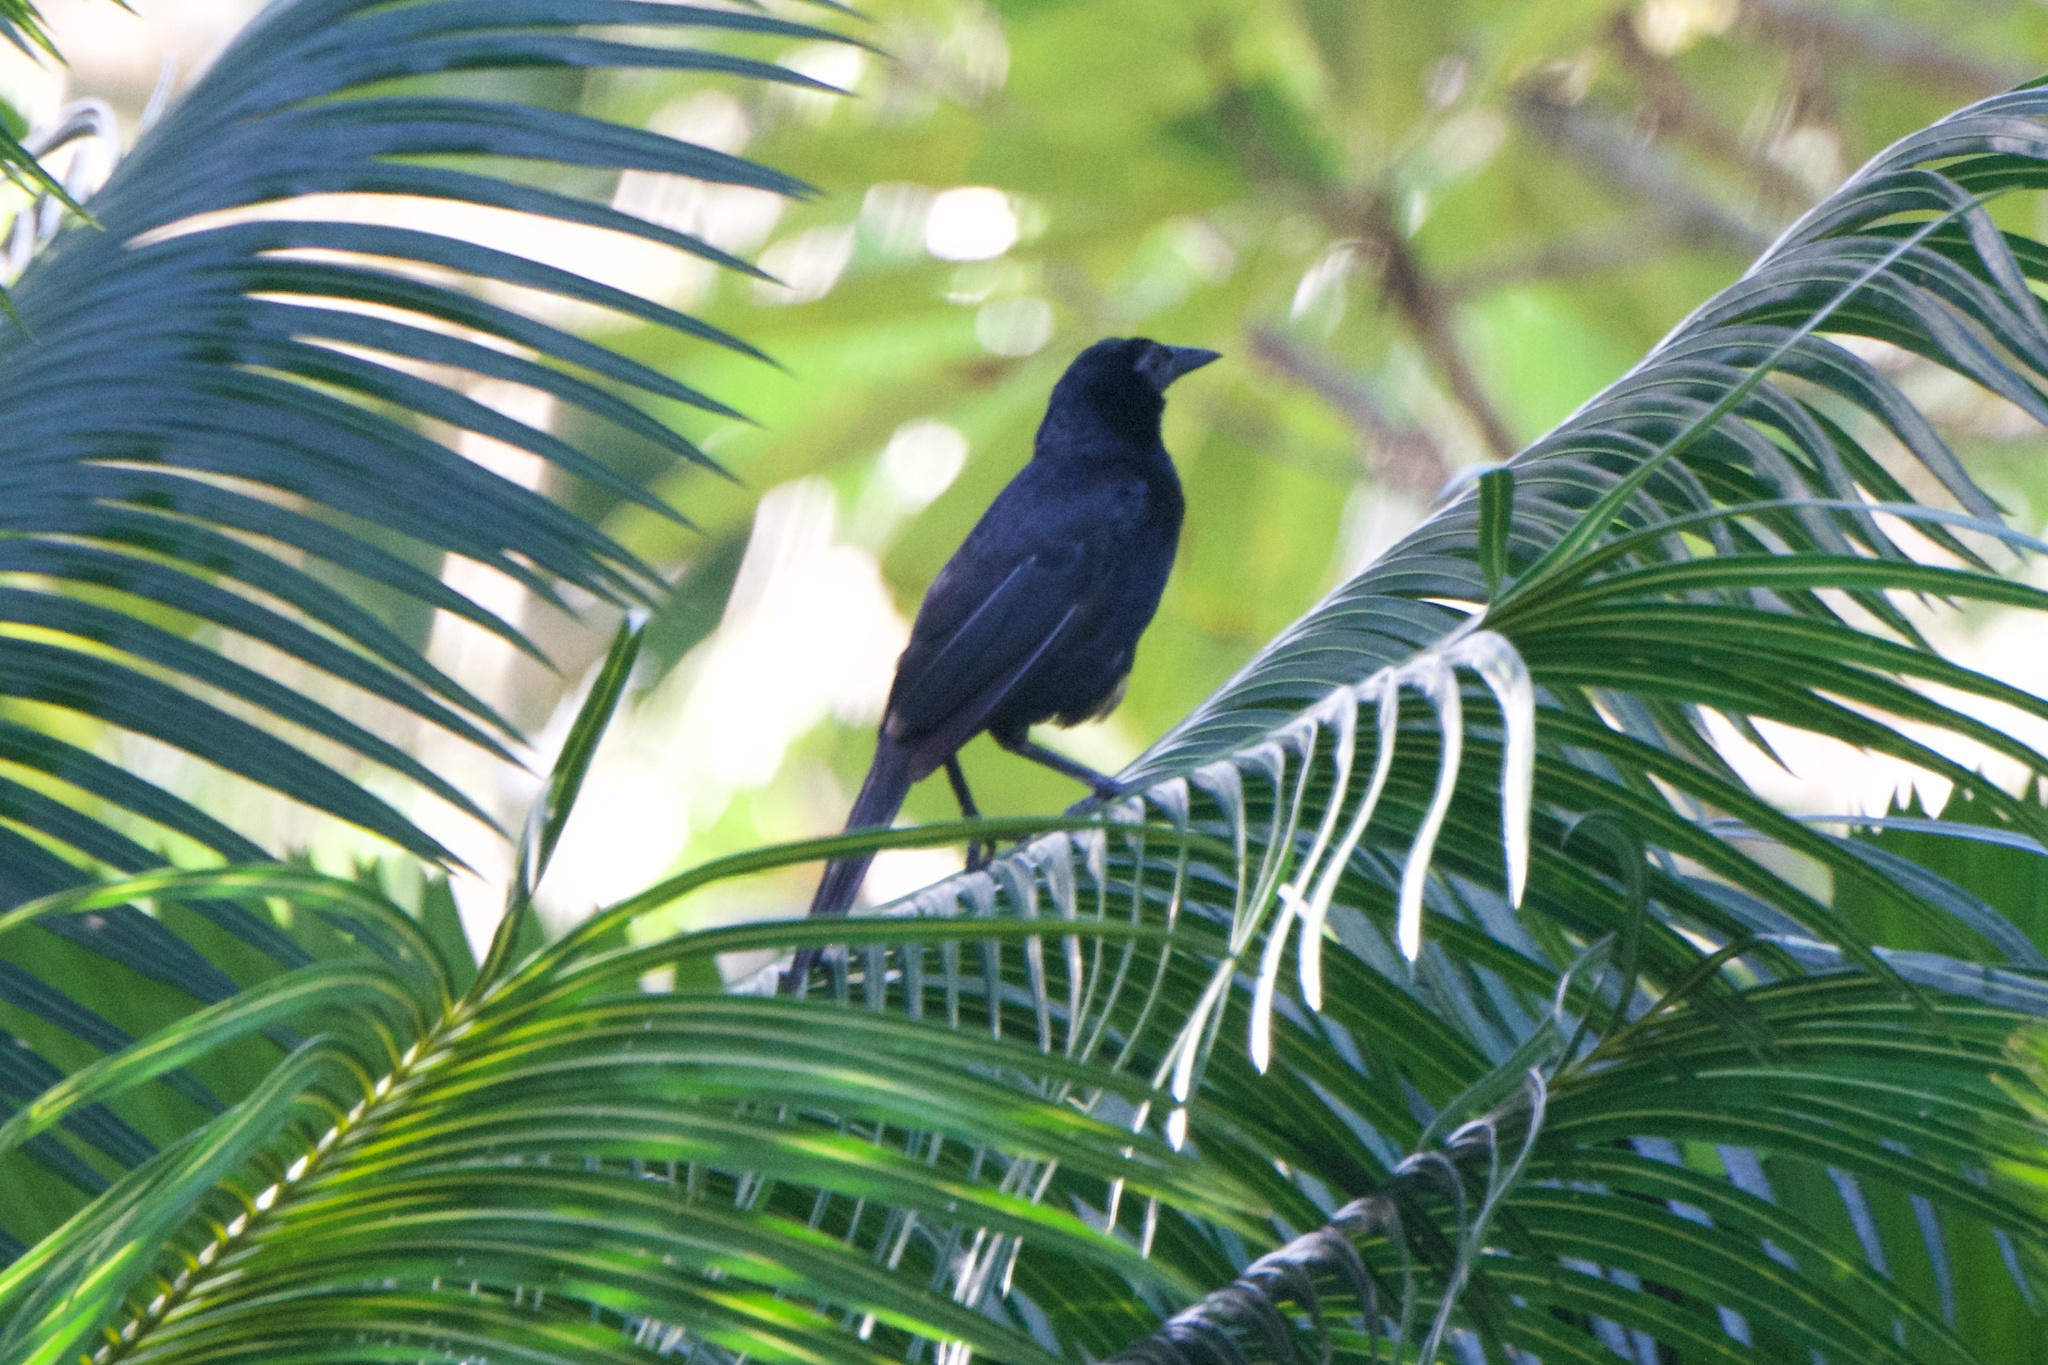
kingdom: Animalia
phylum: Chordata
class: Aves
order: Passeriformes
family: Icteridae
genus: Dives
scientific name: Dives dives
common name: Melodious blackbird
